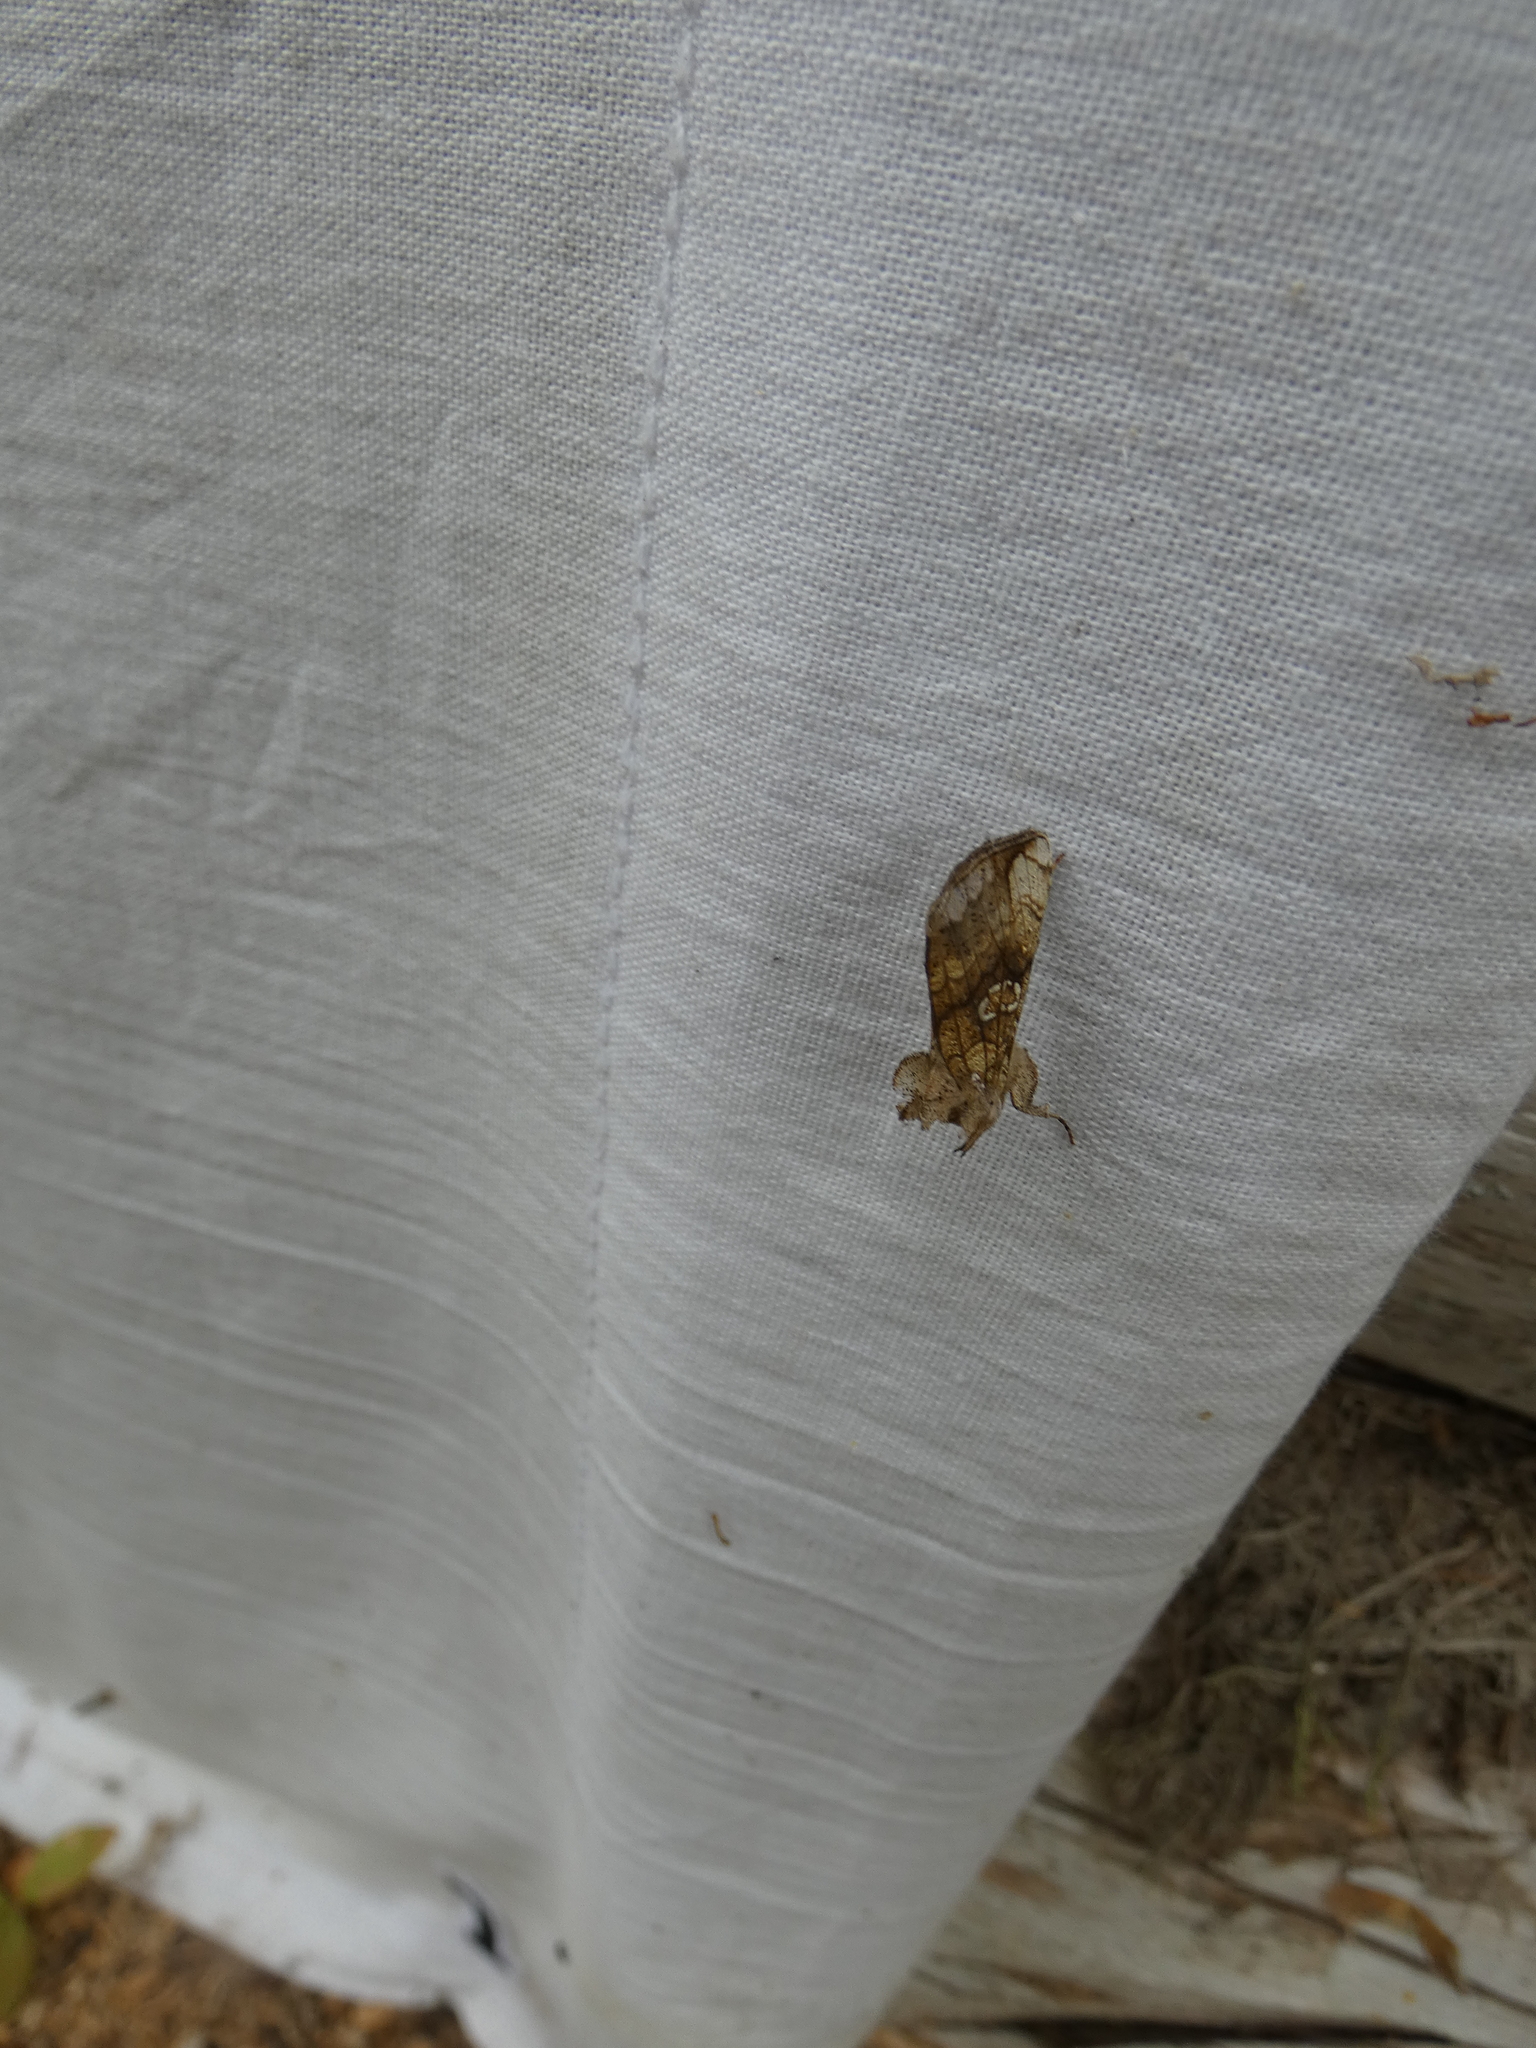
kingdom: Animalia
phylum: Arthropoda
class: Insecta
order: Lepidoptera
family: Noctuidae
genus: Polychrysia
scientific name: Polychrysia moneta
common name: Golden plusia
